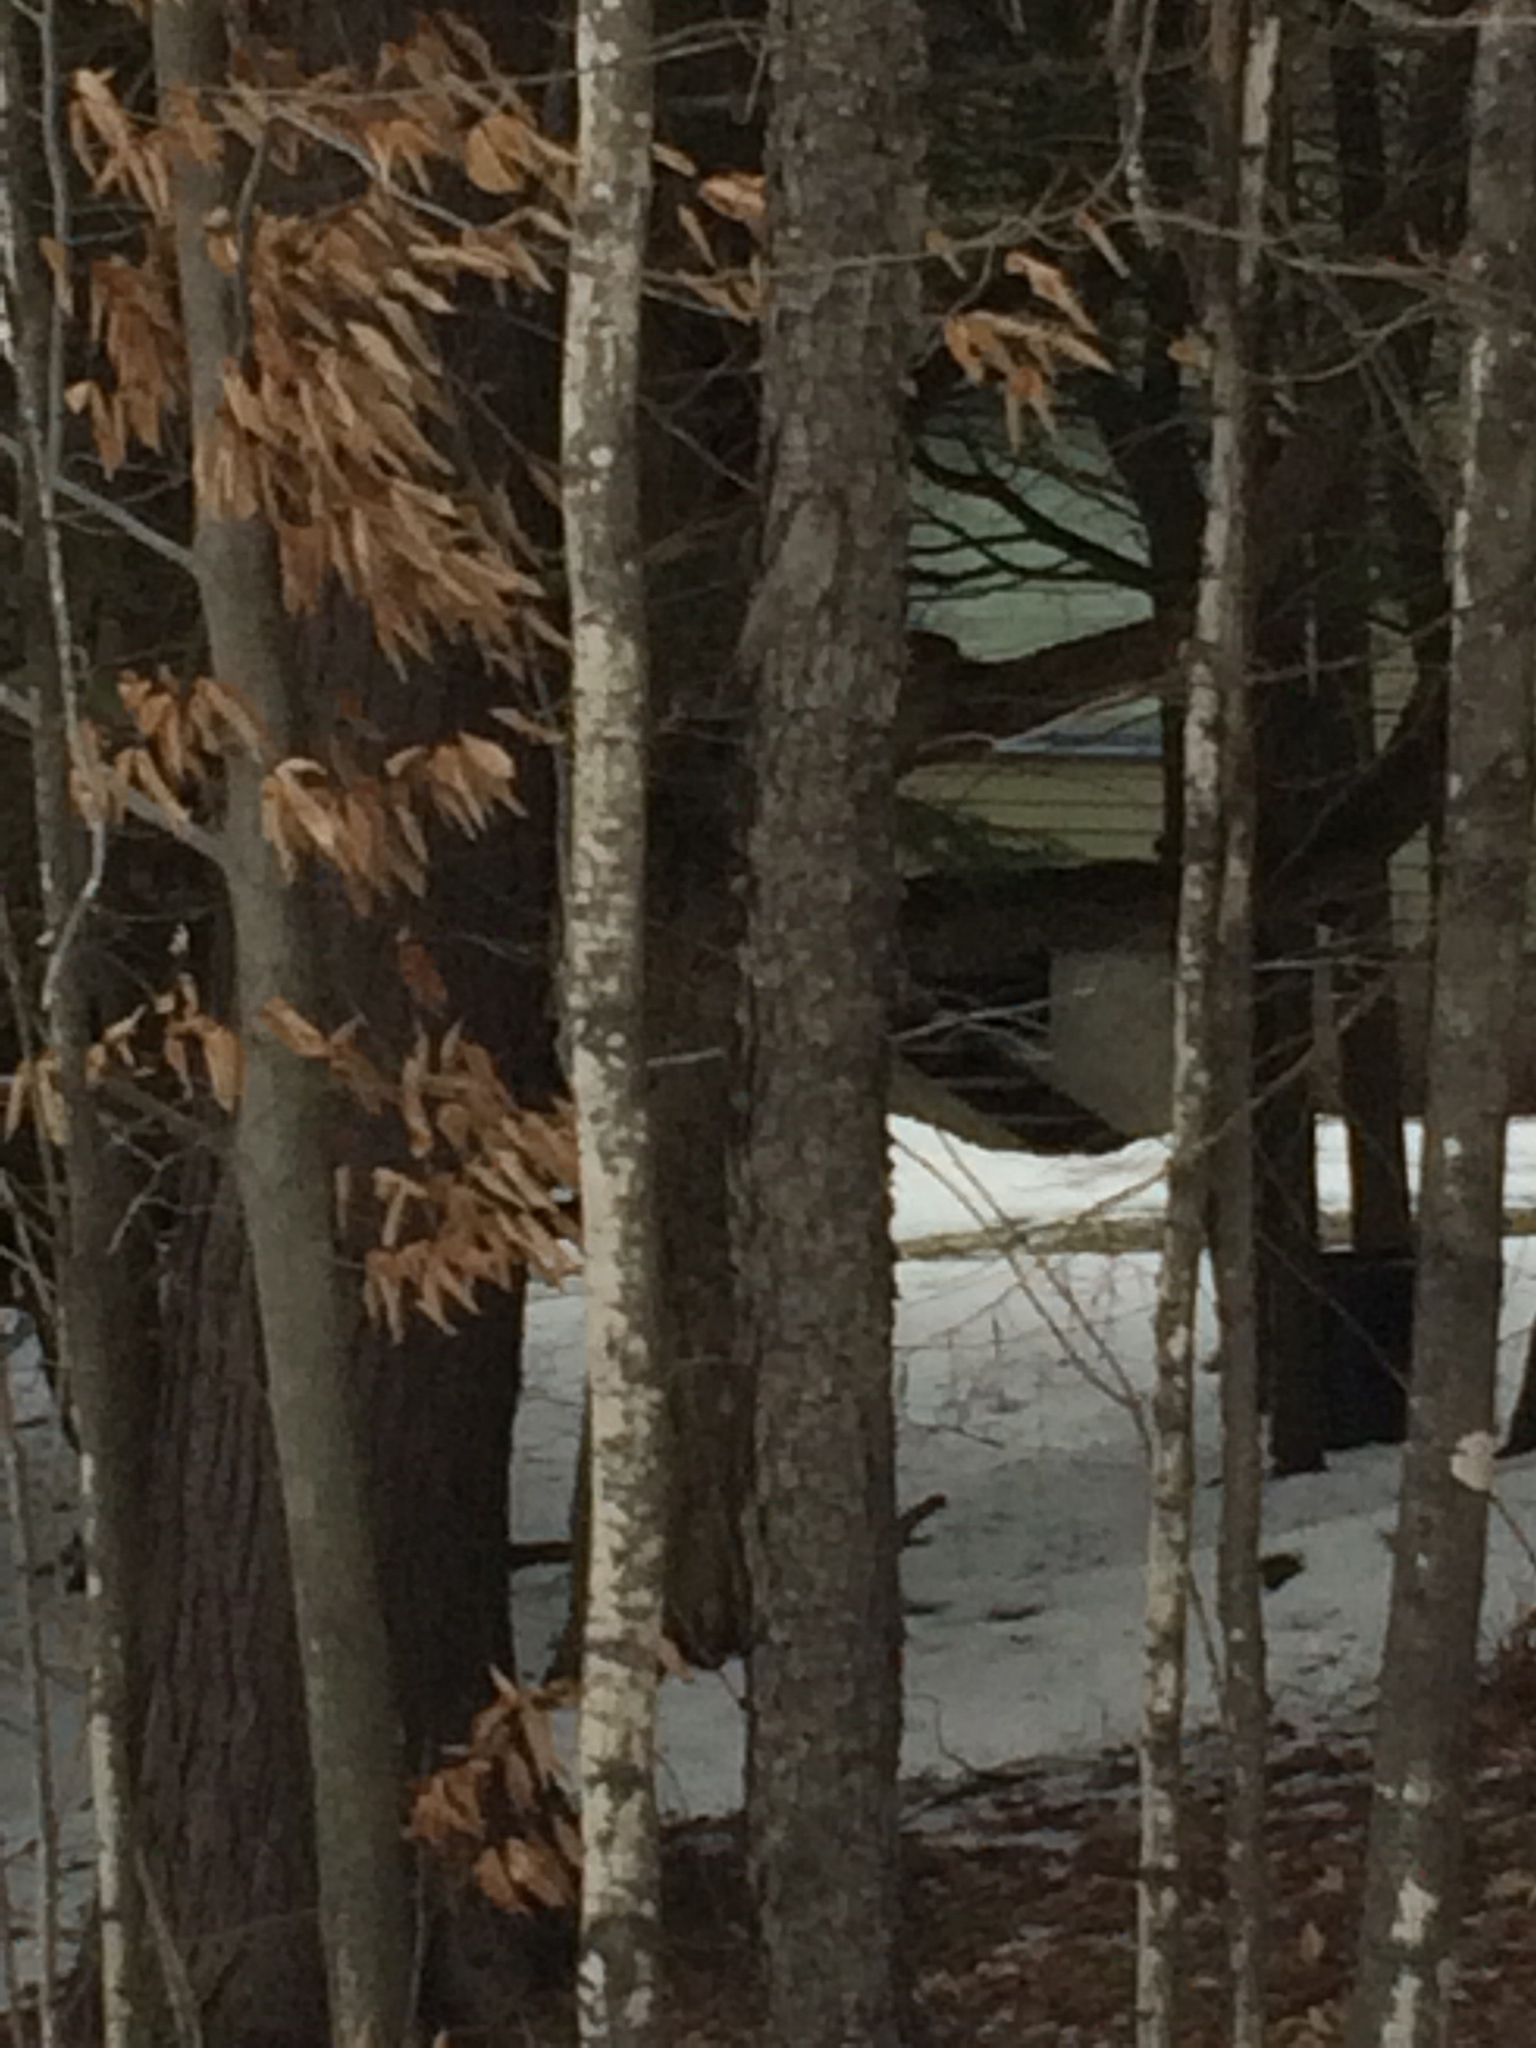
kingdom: Plantae
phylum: Tracheophyta
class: Magnoliopsida
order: Rosales
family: Rosaceae
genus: Prunus
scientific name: Prunus serotina
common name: Black cherry
